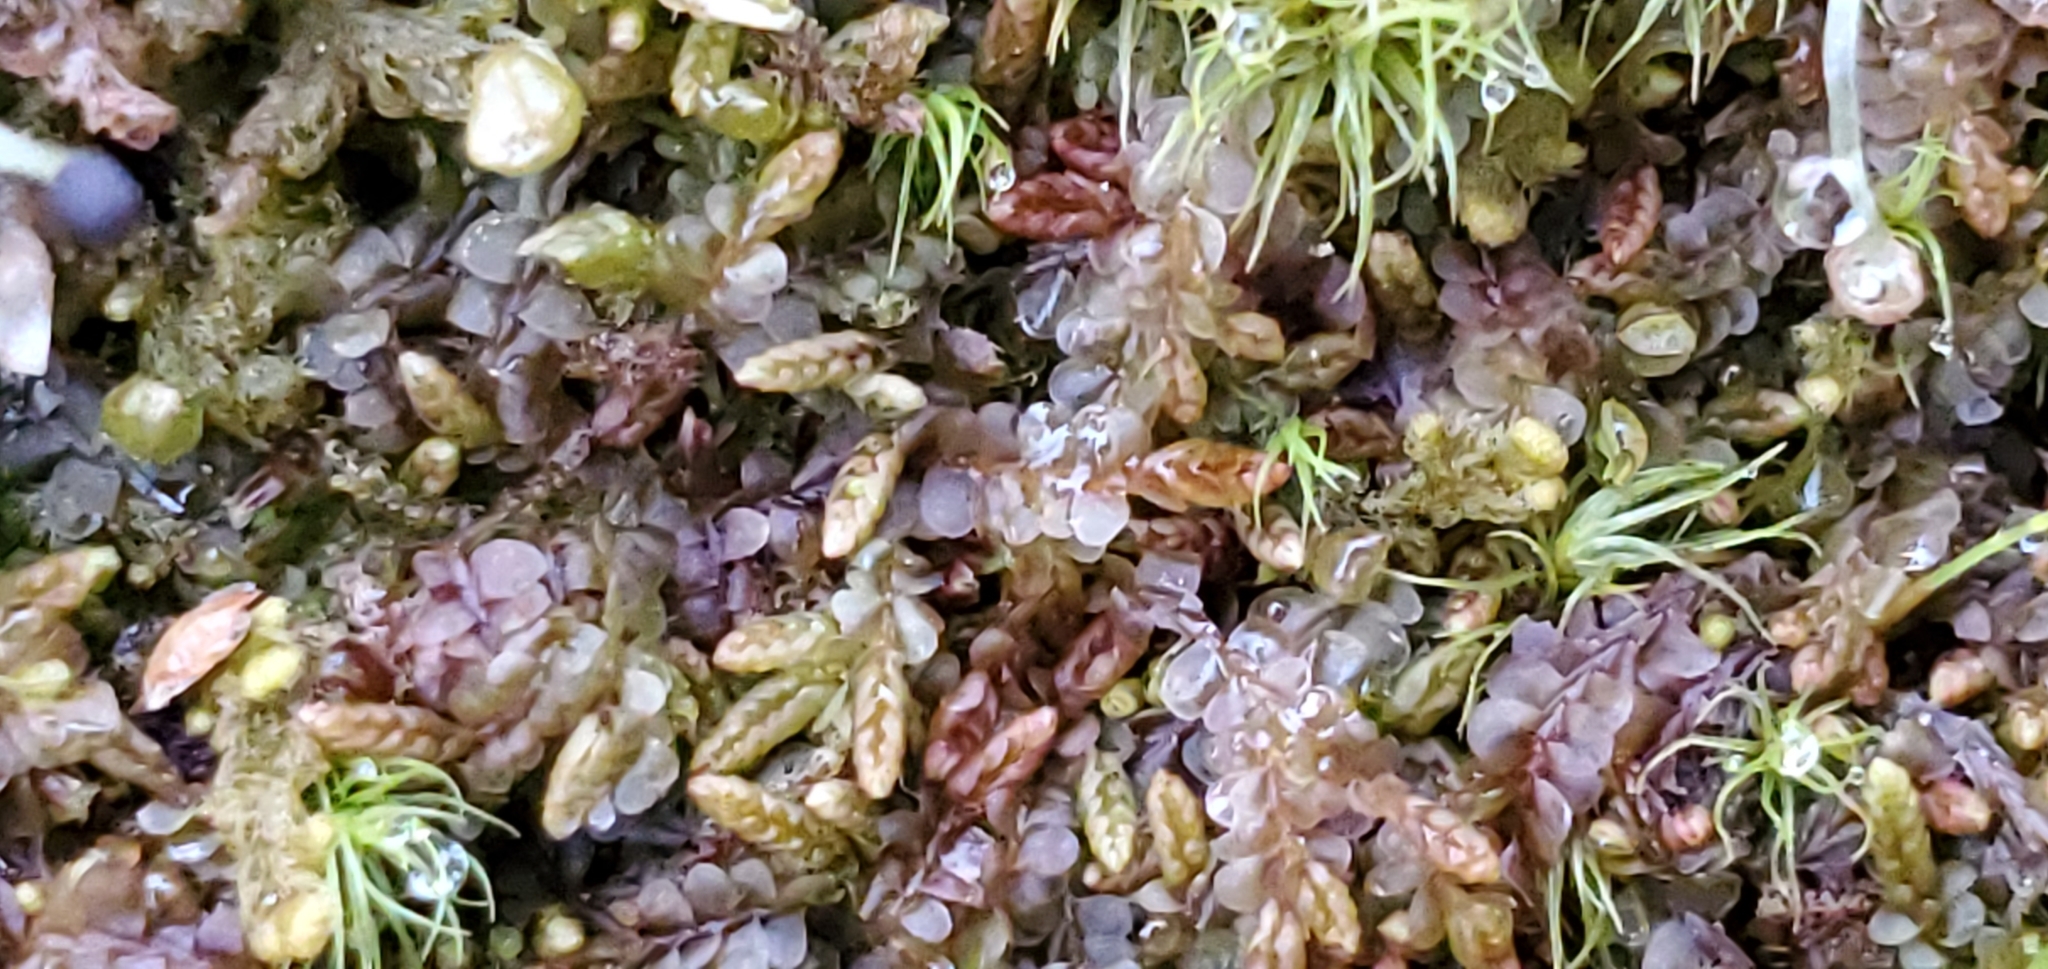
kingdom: Plantae
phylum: Marchantiophyta
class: Jungermanniopsida
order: Jungermanniales
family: Adelanthaceae
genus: Syzygiella
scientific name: Syzygiella autumnalis
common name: Jameson's liverwort
